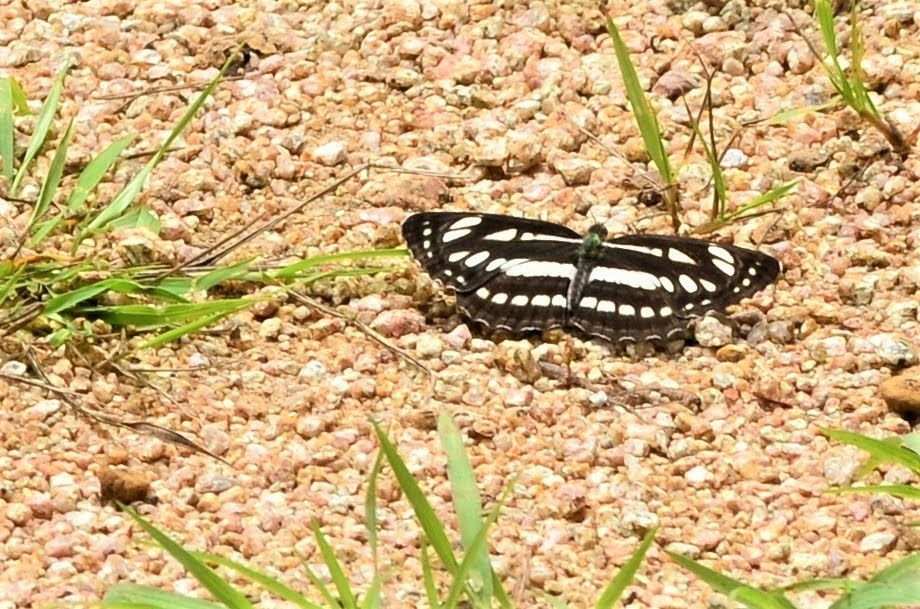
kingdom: Animalia
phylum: Arthropoda
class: Insecta
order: Lepidoptera
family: Nymphalidae
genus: Neptis
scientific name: Neptis hylas
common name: Common sailer
